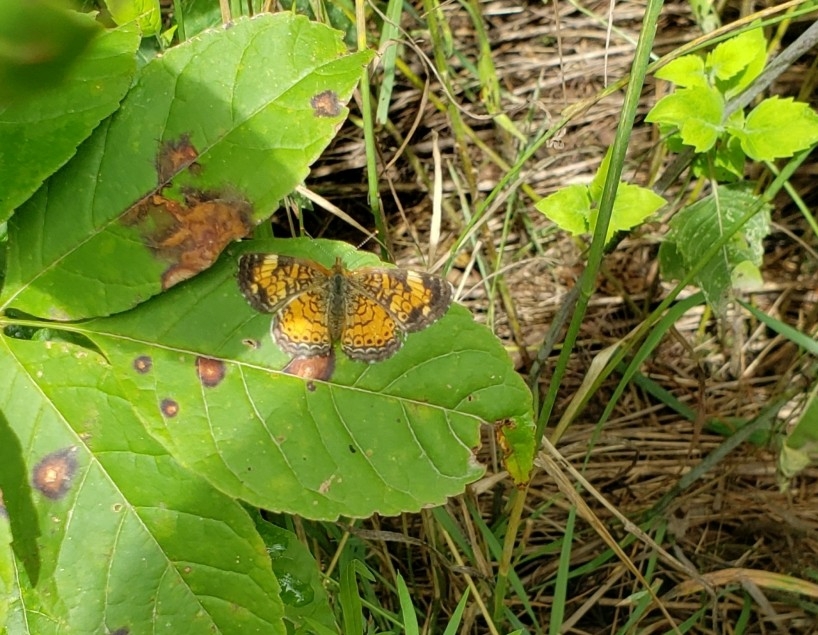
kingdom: Animalia
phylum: Arthropoda
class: Insecta
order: Lepidoptera
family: Nymphalidae
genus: Phyciodes
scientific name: Phyciodes tharos
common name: Pearl crescent
